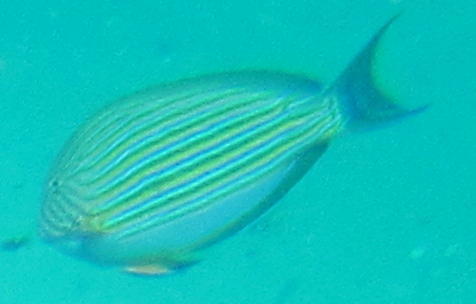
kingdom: Animalia
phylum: Chordata
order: Perciformes
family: Acanthuridae
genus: Acanthurus
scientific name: Acanthurus lineatus
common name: Striped surgeonfish
